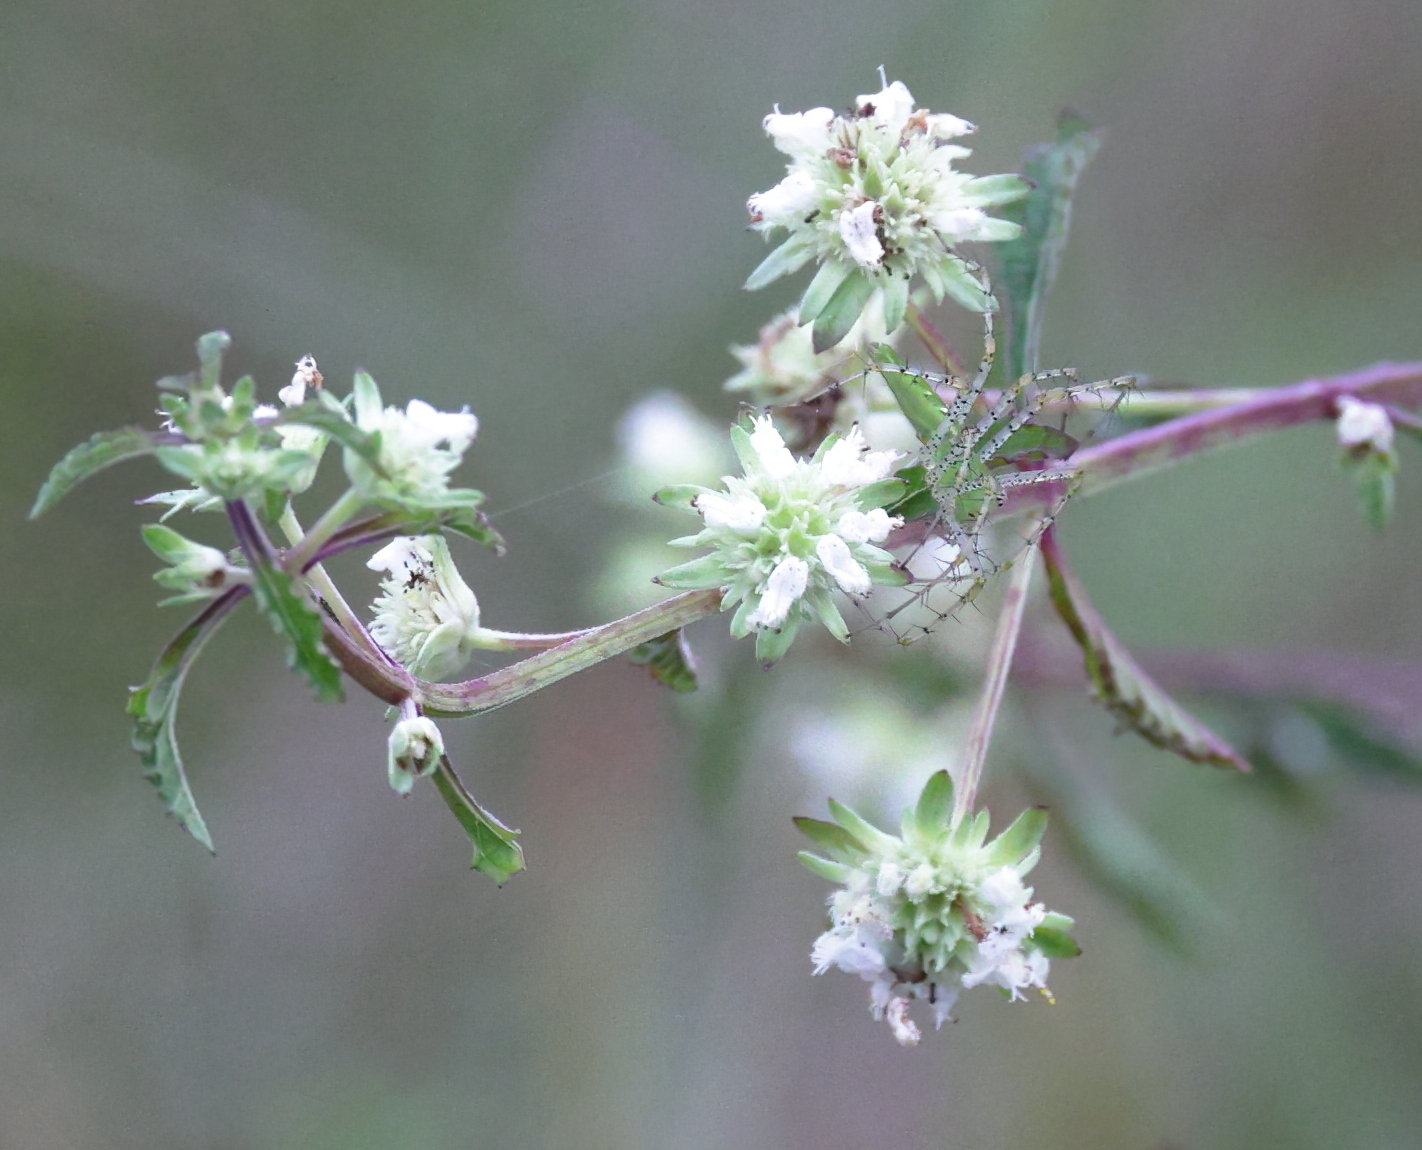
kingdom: Animalia
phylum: Arthropoda
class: Arachnida
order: Araneae
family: Oxyopidae
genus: Peucetia
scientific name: Peucetia viridans
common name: Lynx spiders
